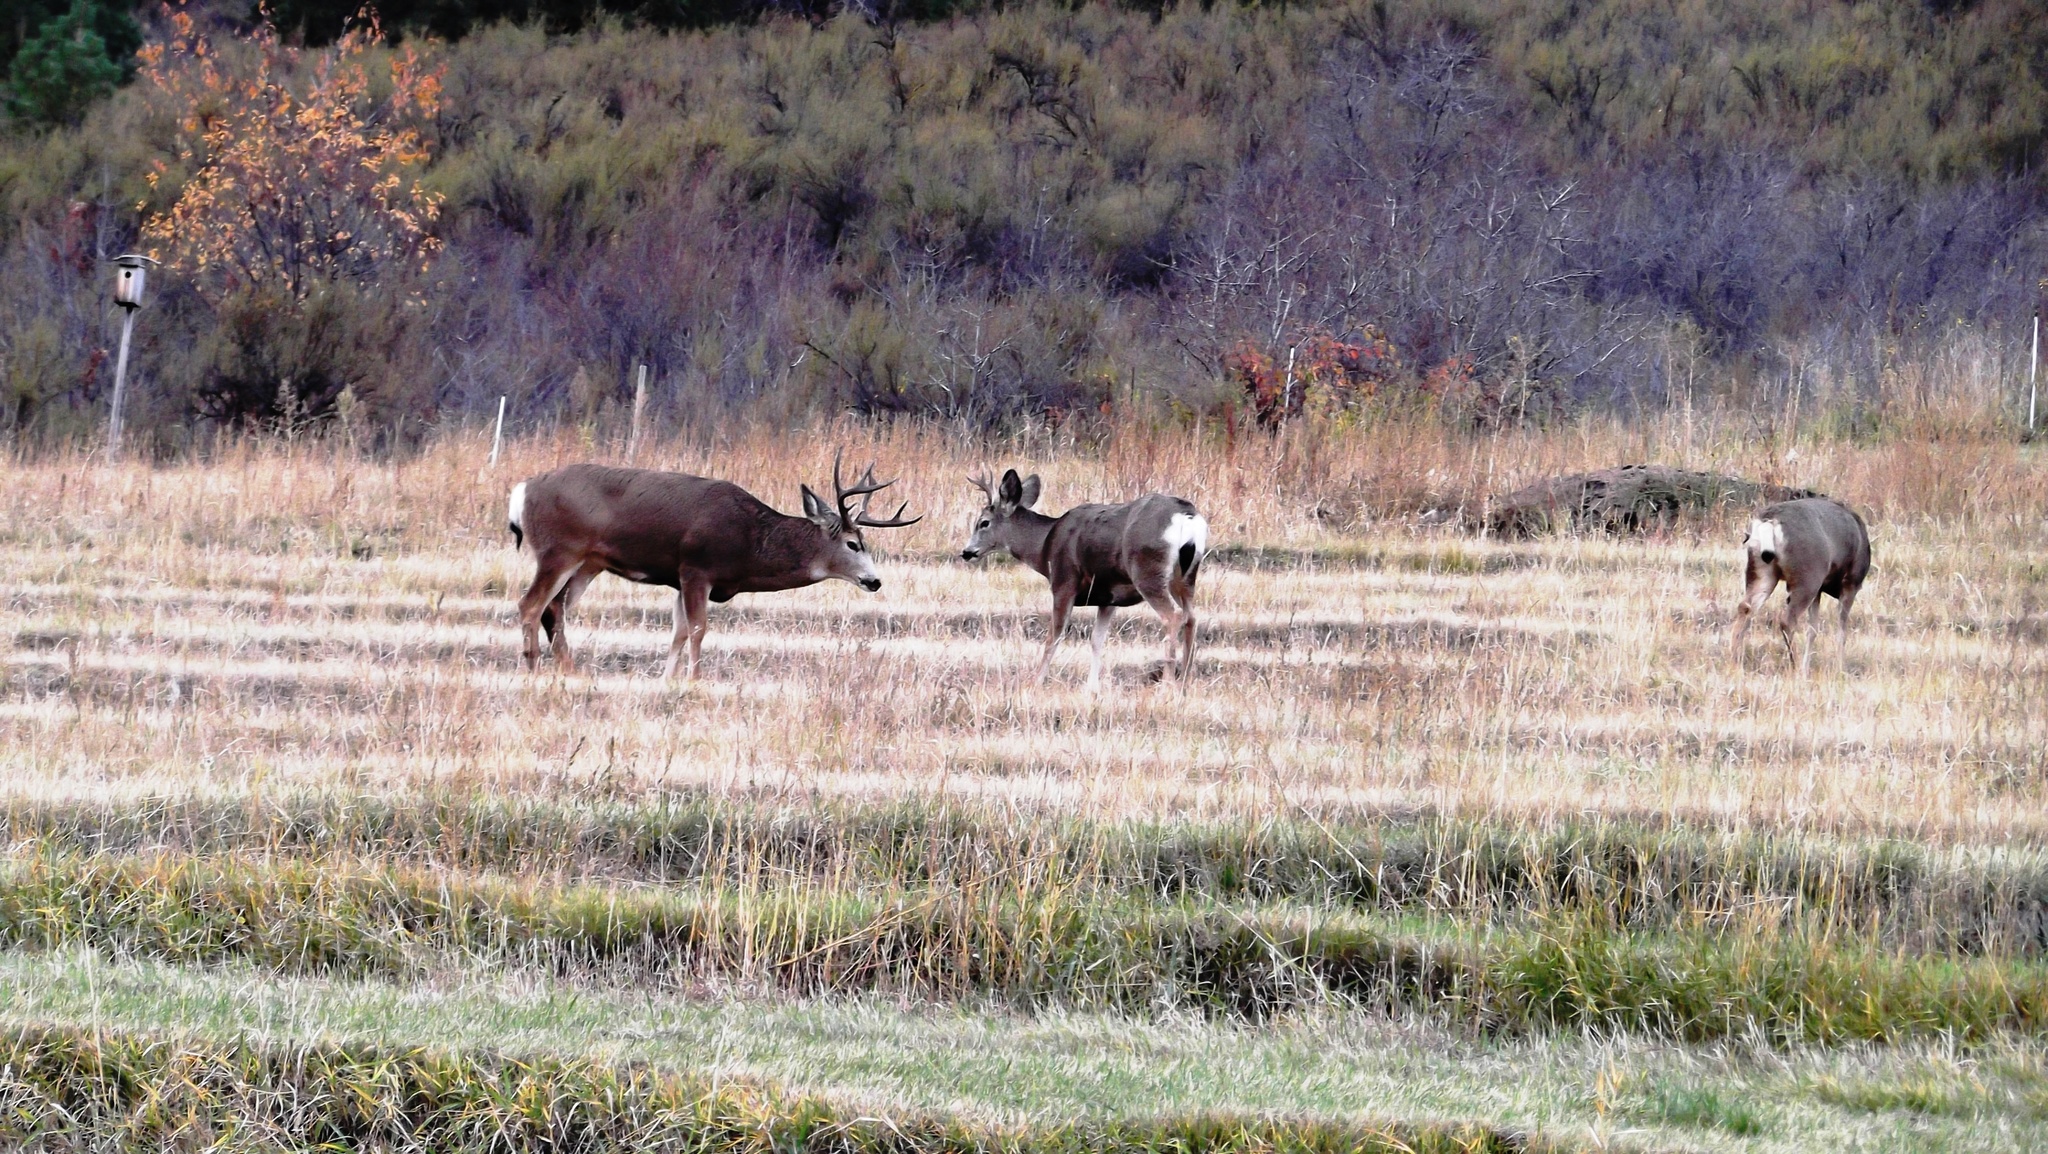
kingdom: Animalia
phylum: Chordata
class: Mammalia
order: Artiodactyla
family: Cervidae
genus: Odocoileus
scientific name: Odocoileus hemionus
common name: Mule deer
